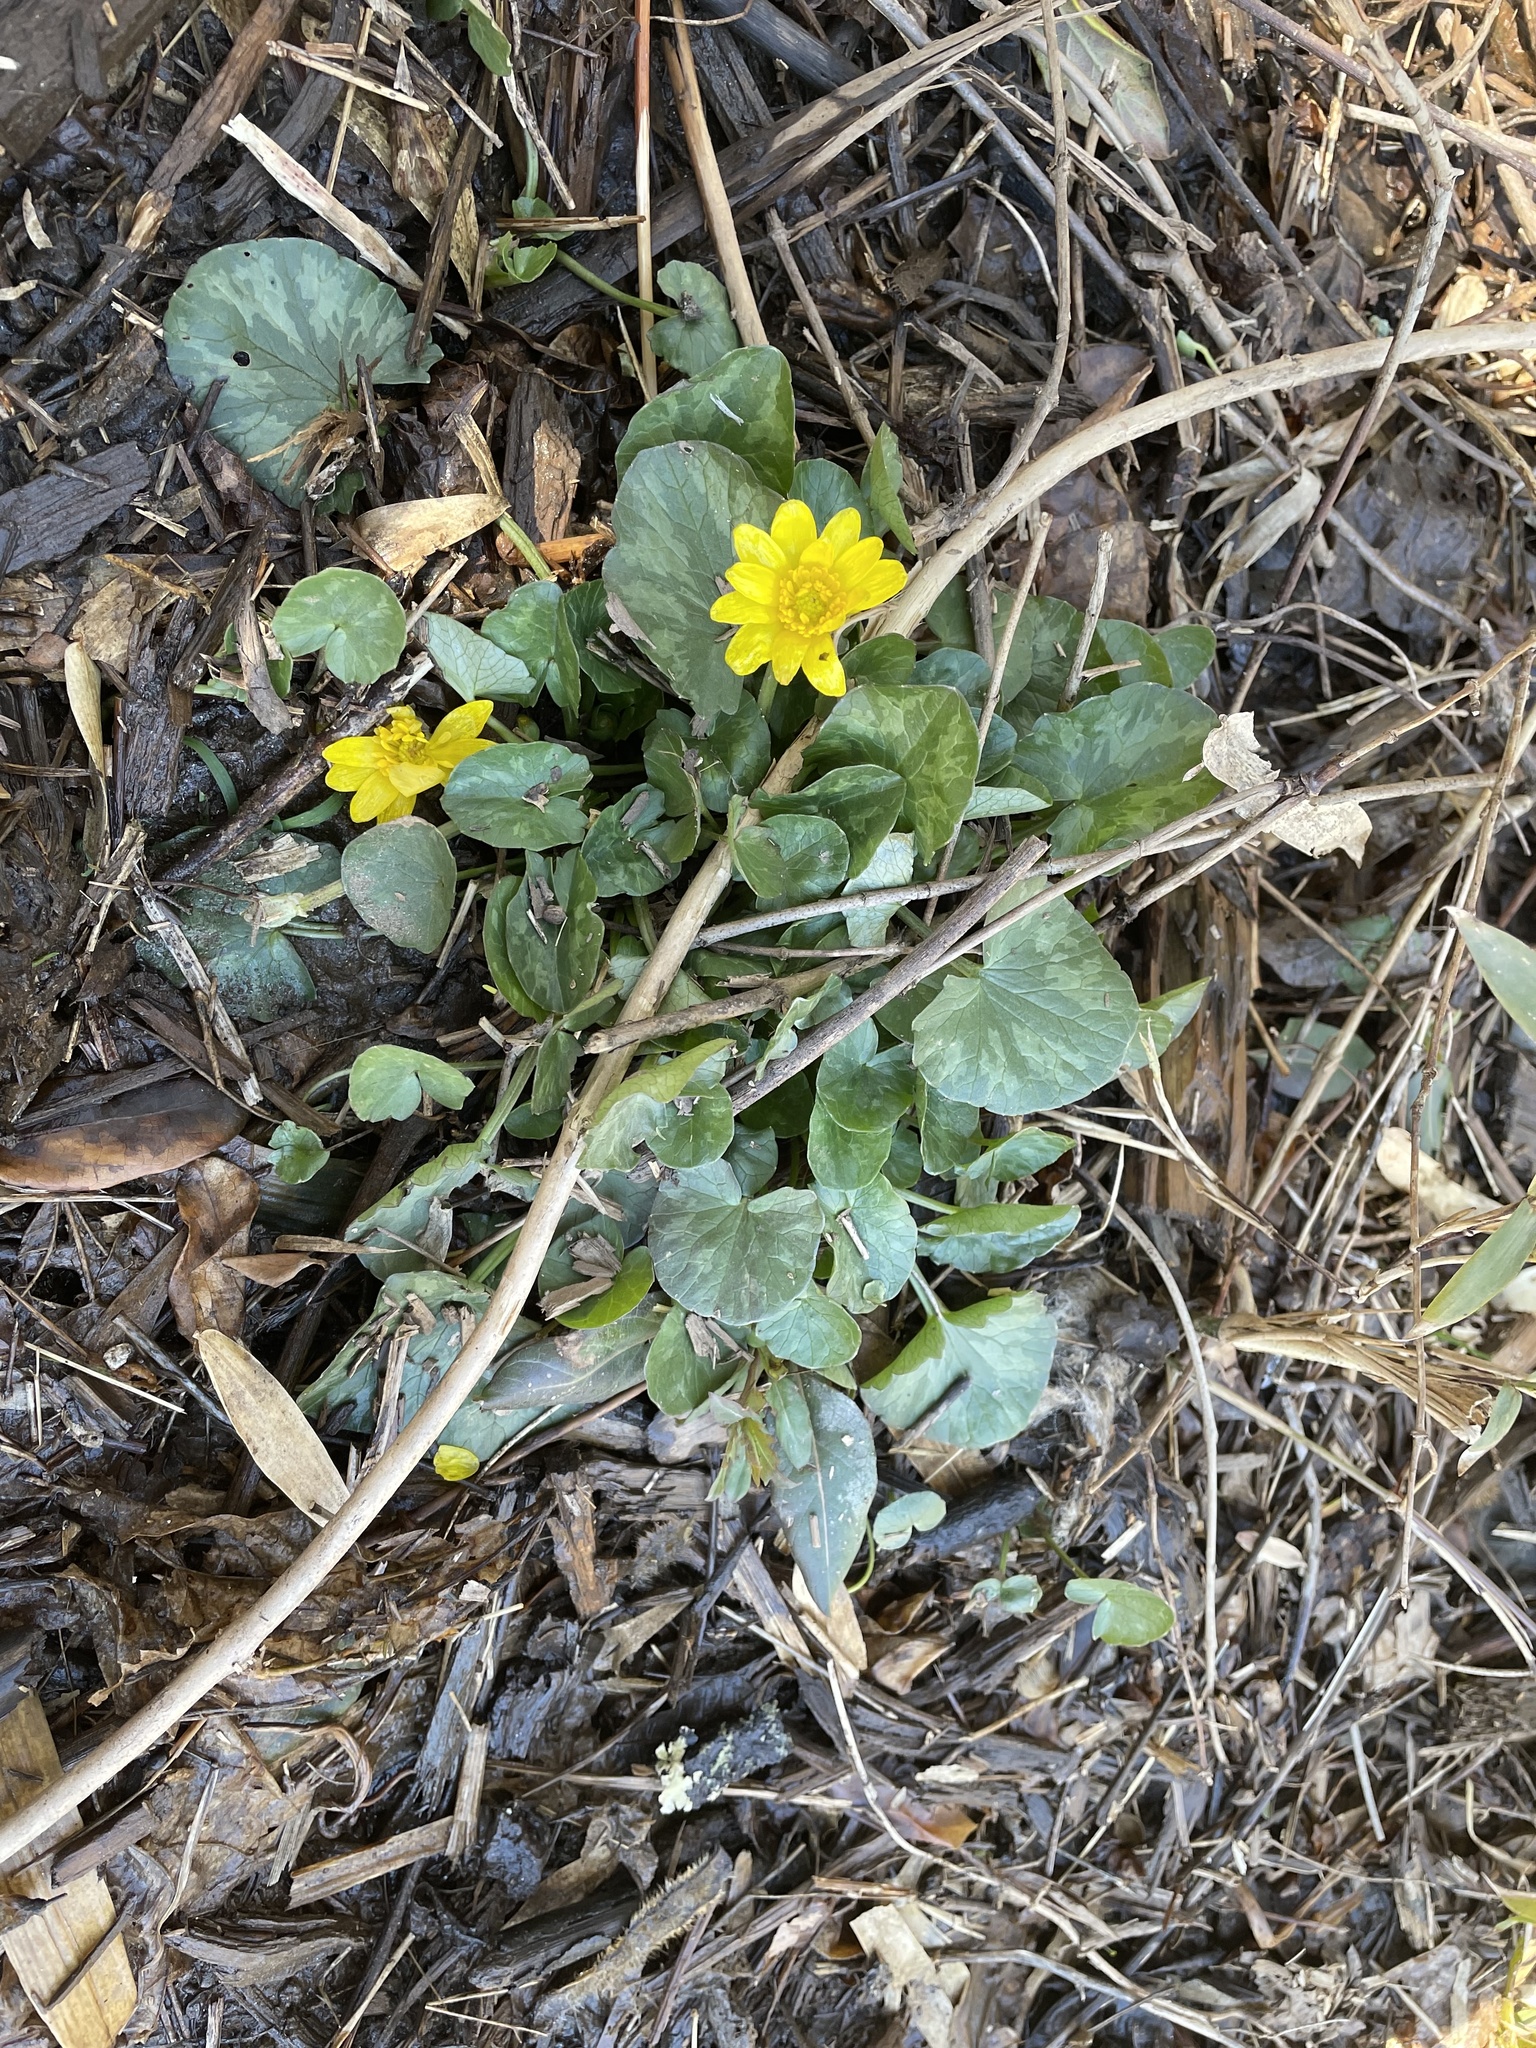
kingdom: Plantae
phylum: Tracheophyta
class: Magnoliopsida
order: Ranunculales
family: Ranunculaceae
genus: Ficaria
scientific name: Ficaria verna
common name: Lesser celandine
